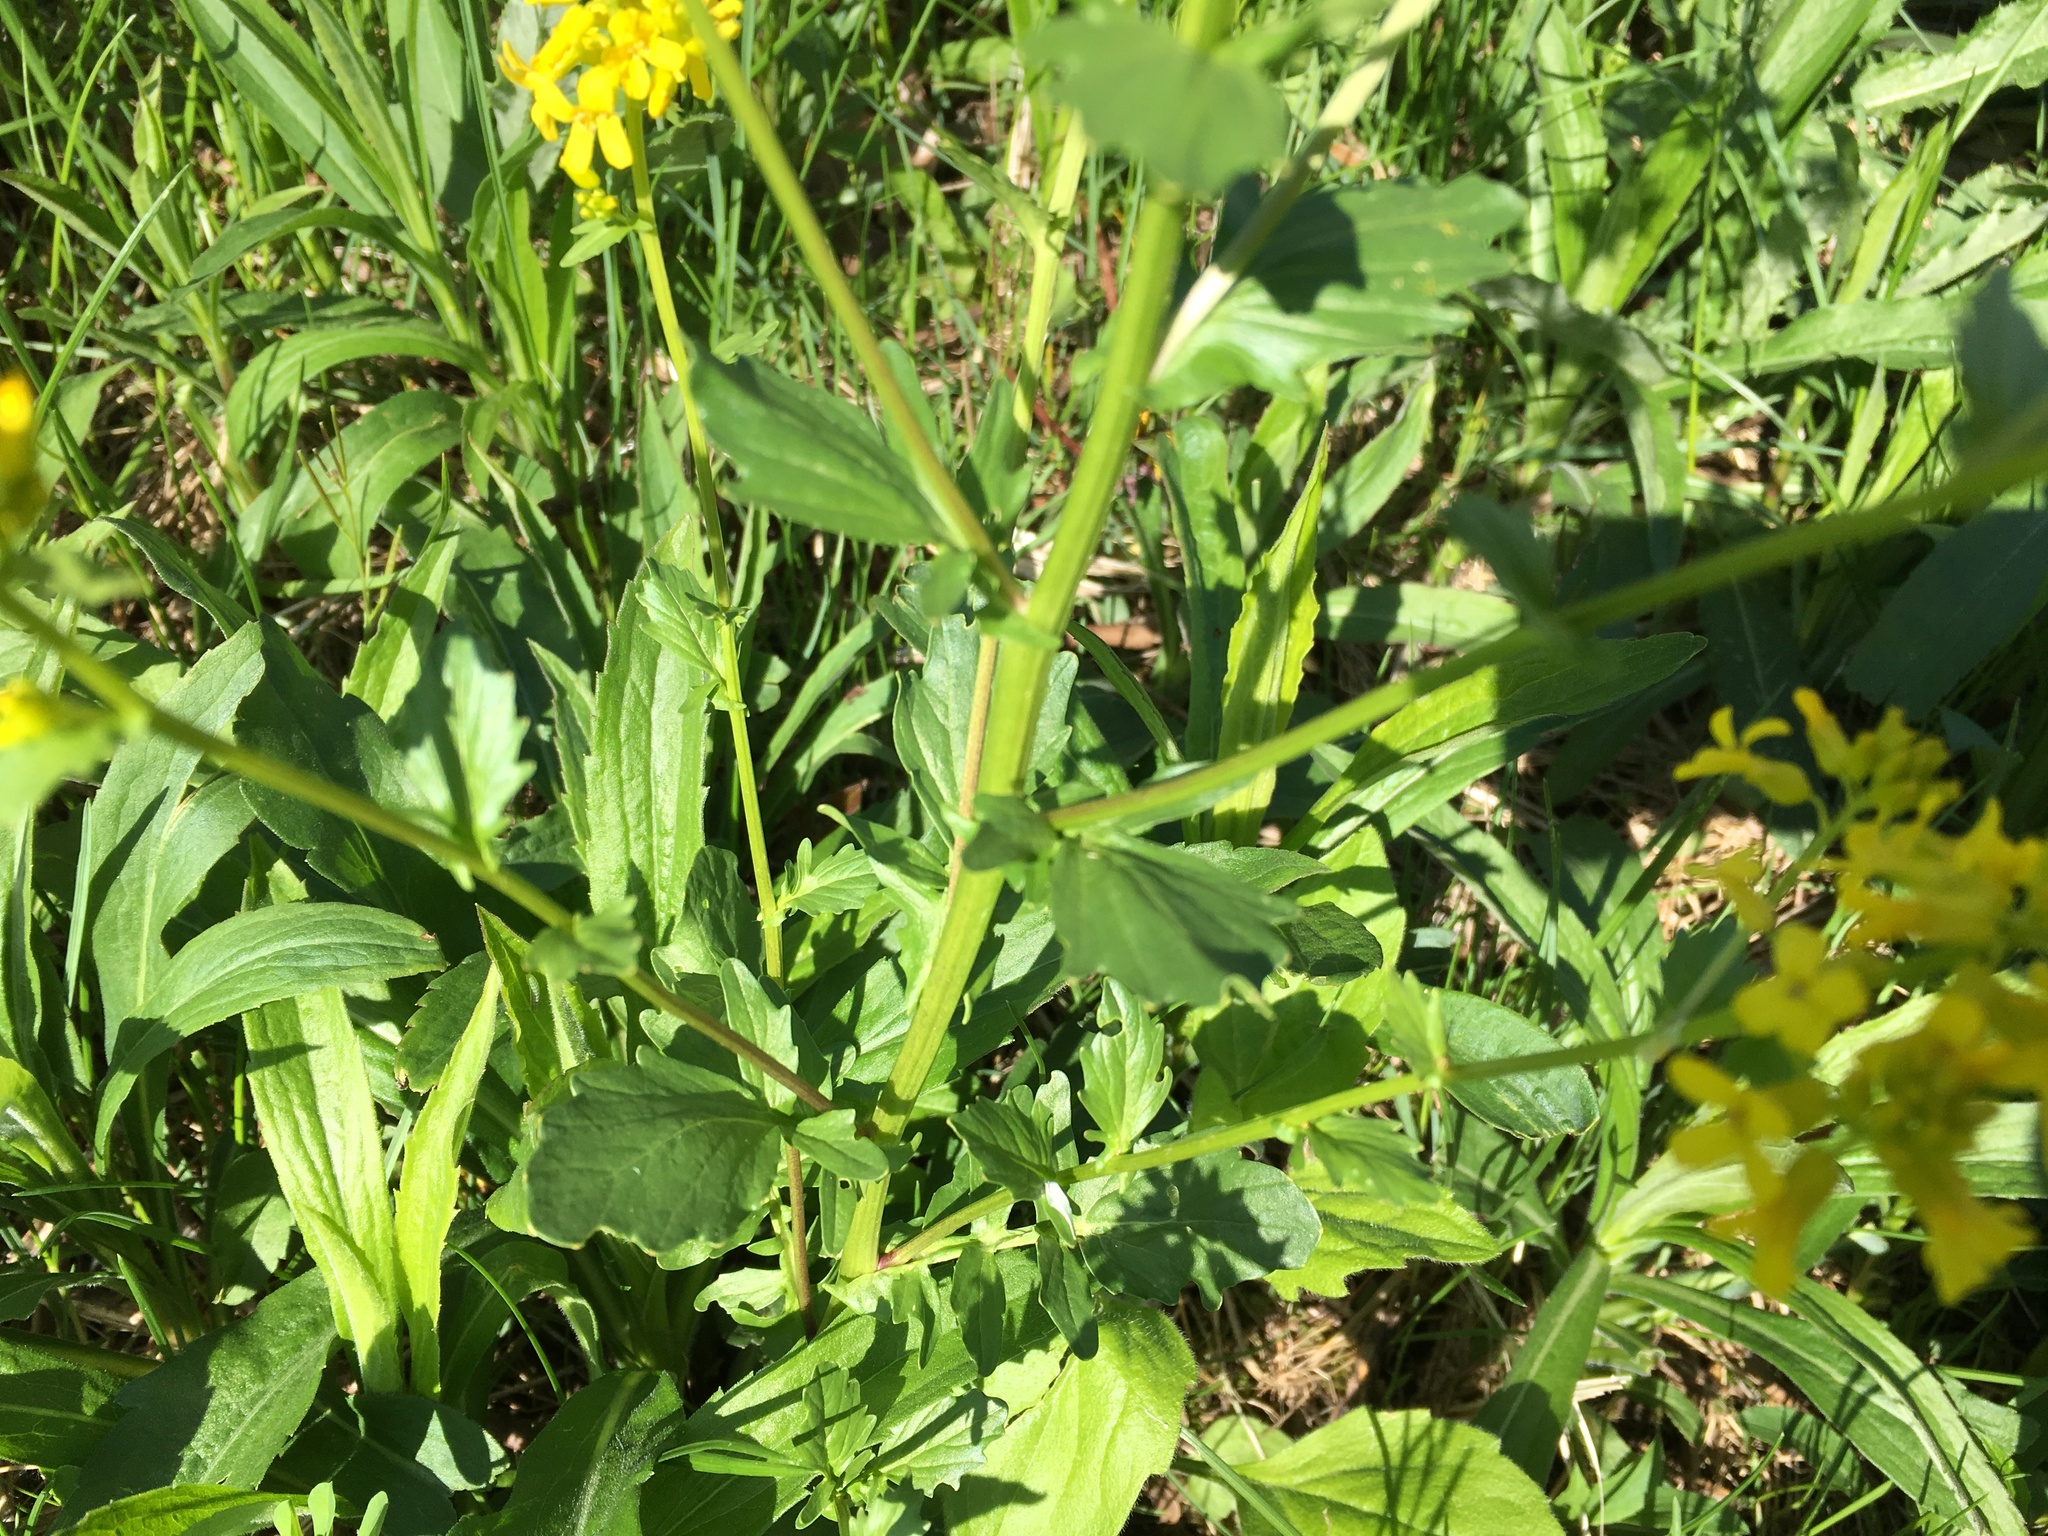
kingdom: Plantae
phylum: Tracheophyta
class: Magnoliopsida
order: Brassicales
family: Brassicaceae
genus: Barbarea
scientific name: Barbarea vulgaris
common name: Cressy-greens
